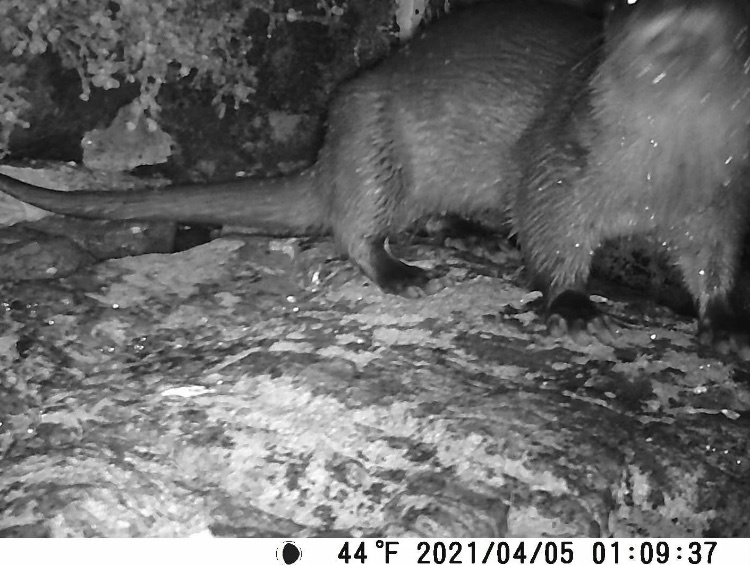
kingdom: Animalia
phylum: Chordata
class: Mammalia
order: Carnivora
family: Mustelidae
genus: Lutra
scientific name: Lutra lutra
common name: European otter
